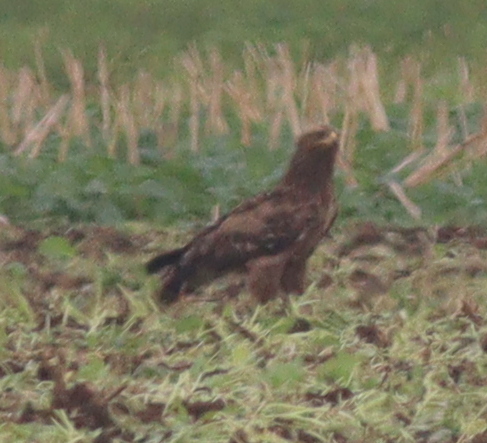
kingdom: Animalia
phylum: Chordata
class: Aves
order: Accipitriformes
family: Accipitridae
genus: Aquila
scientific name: Aquila pomarina
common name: Lesser spotted eagle
